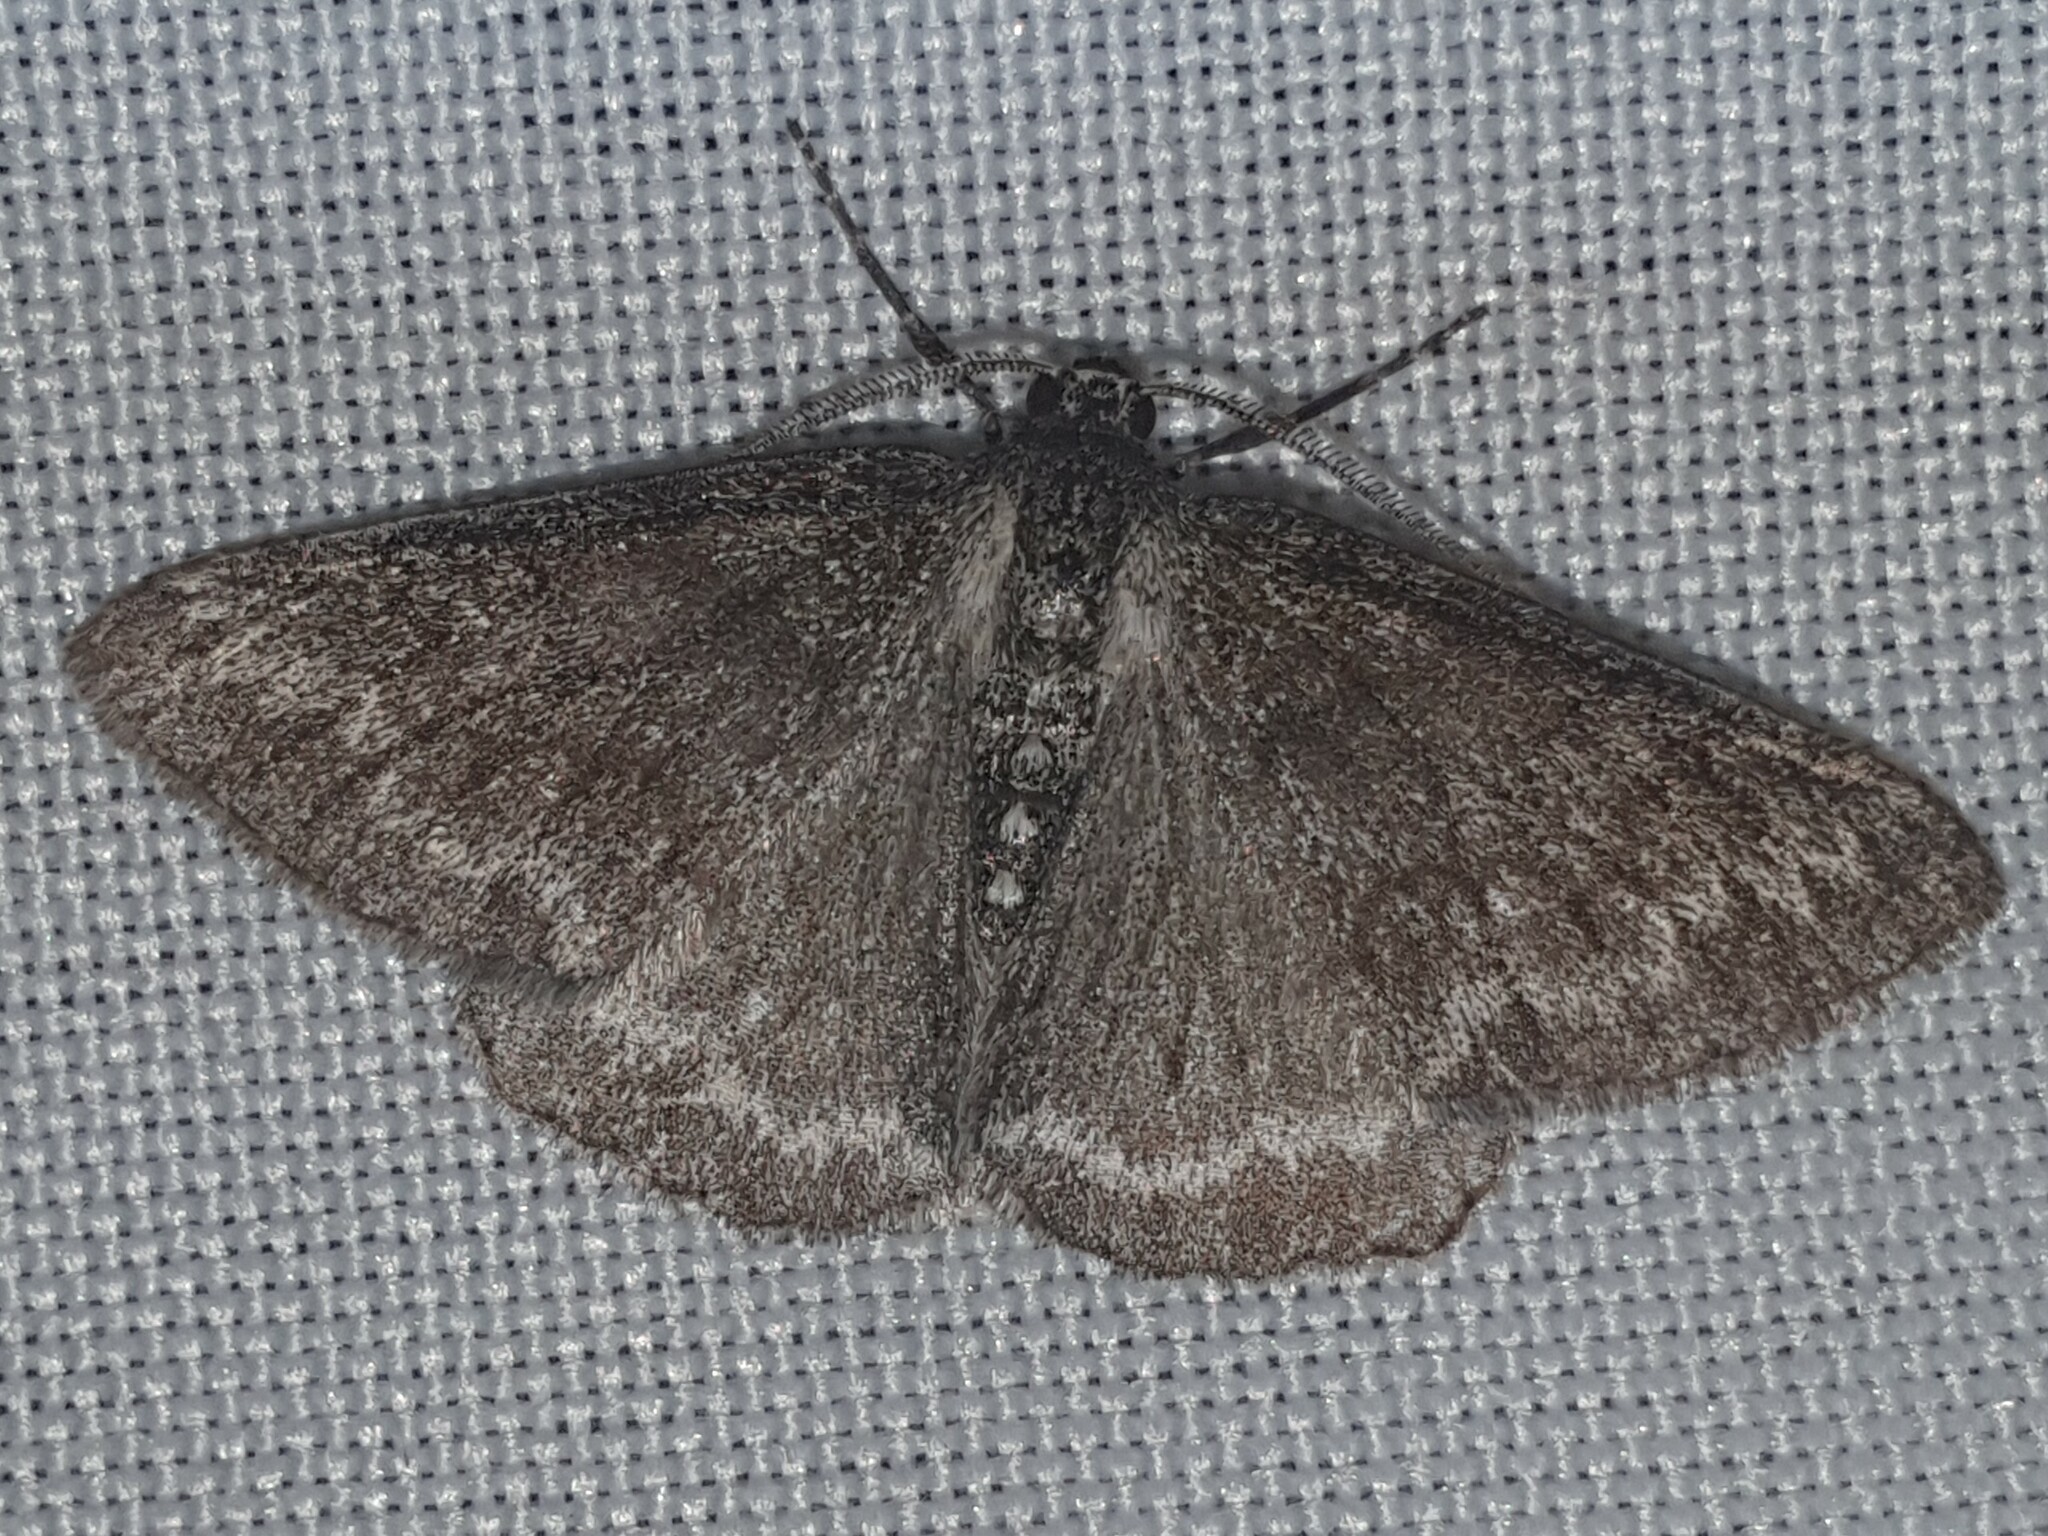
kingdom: Animalia
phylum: Arthropoda
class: Insecta
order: Lepidoptera
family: Geometridae
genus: Pseudoterpna
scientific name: Pseudoterpna coronillaria
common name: Jersey emerald
